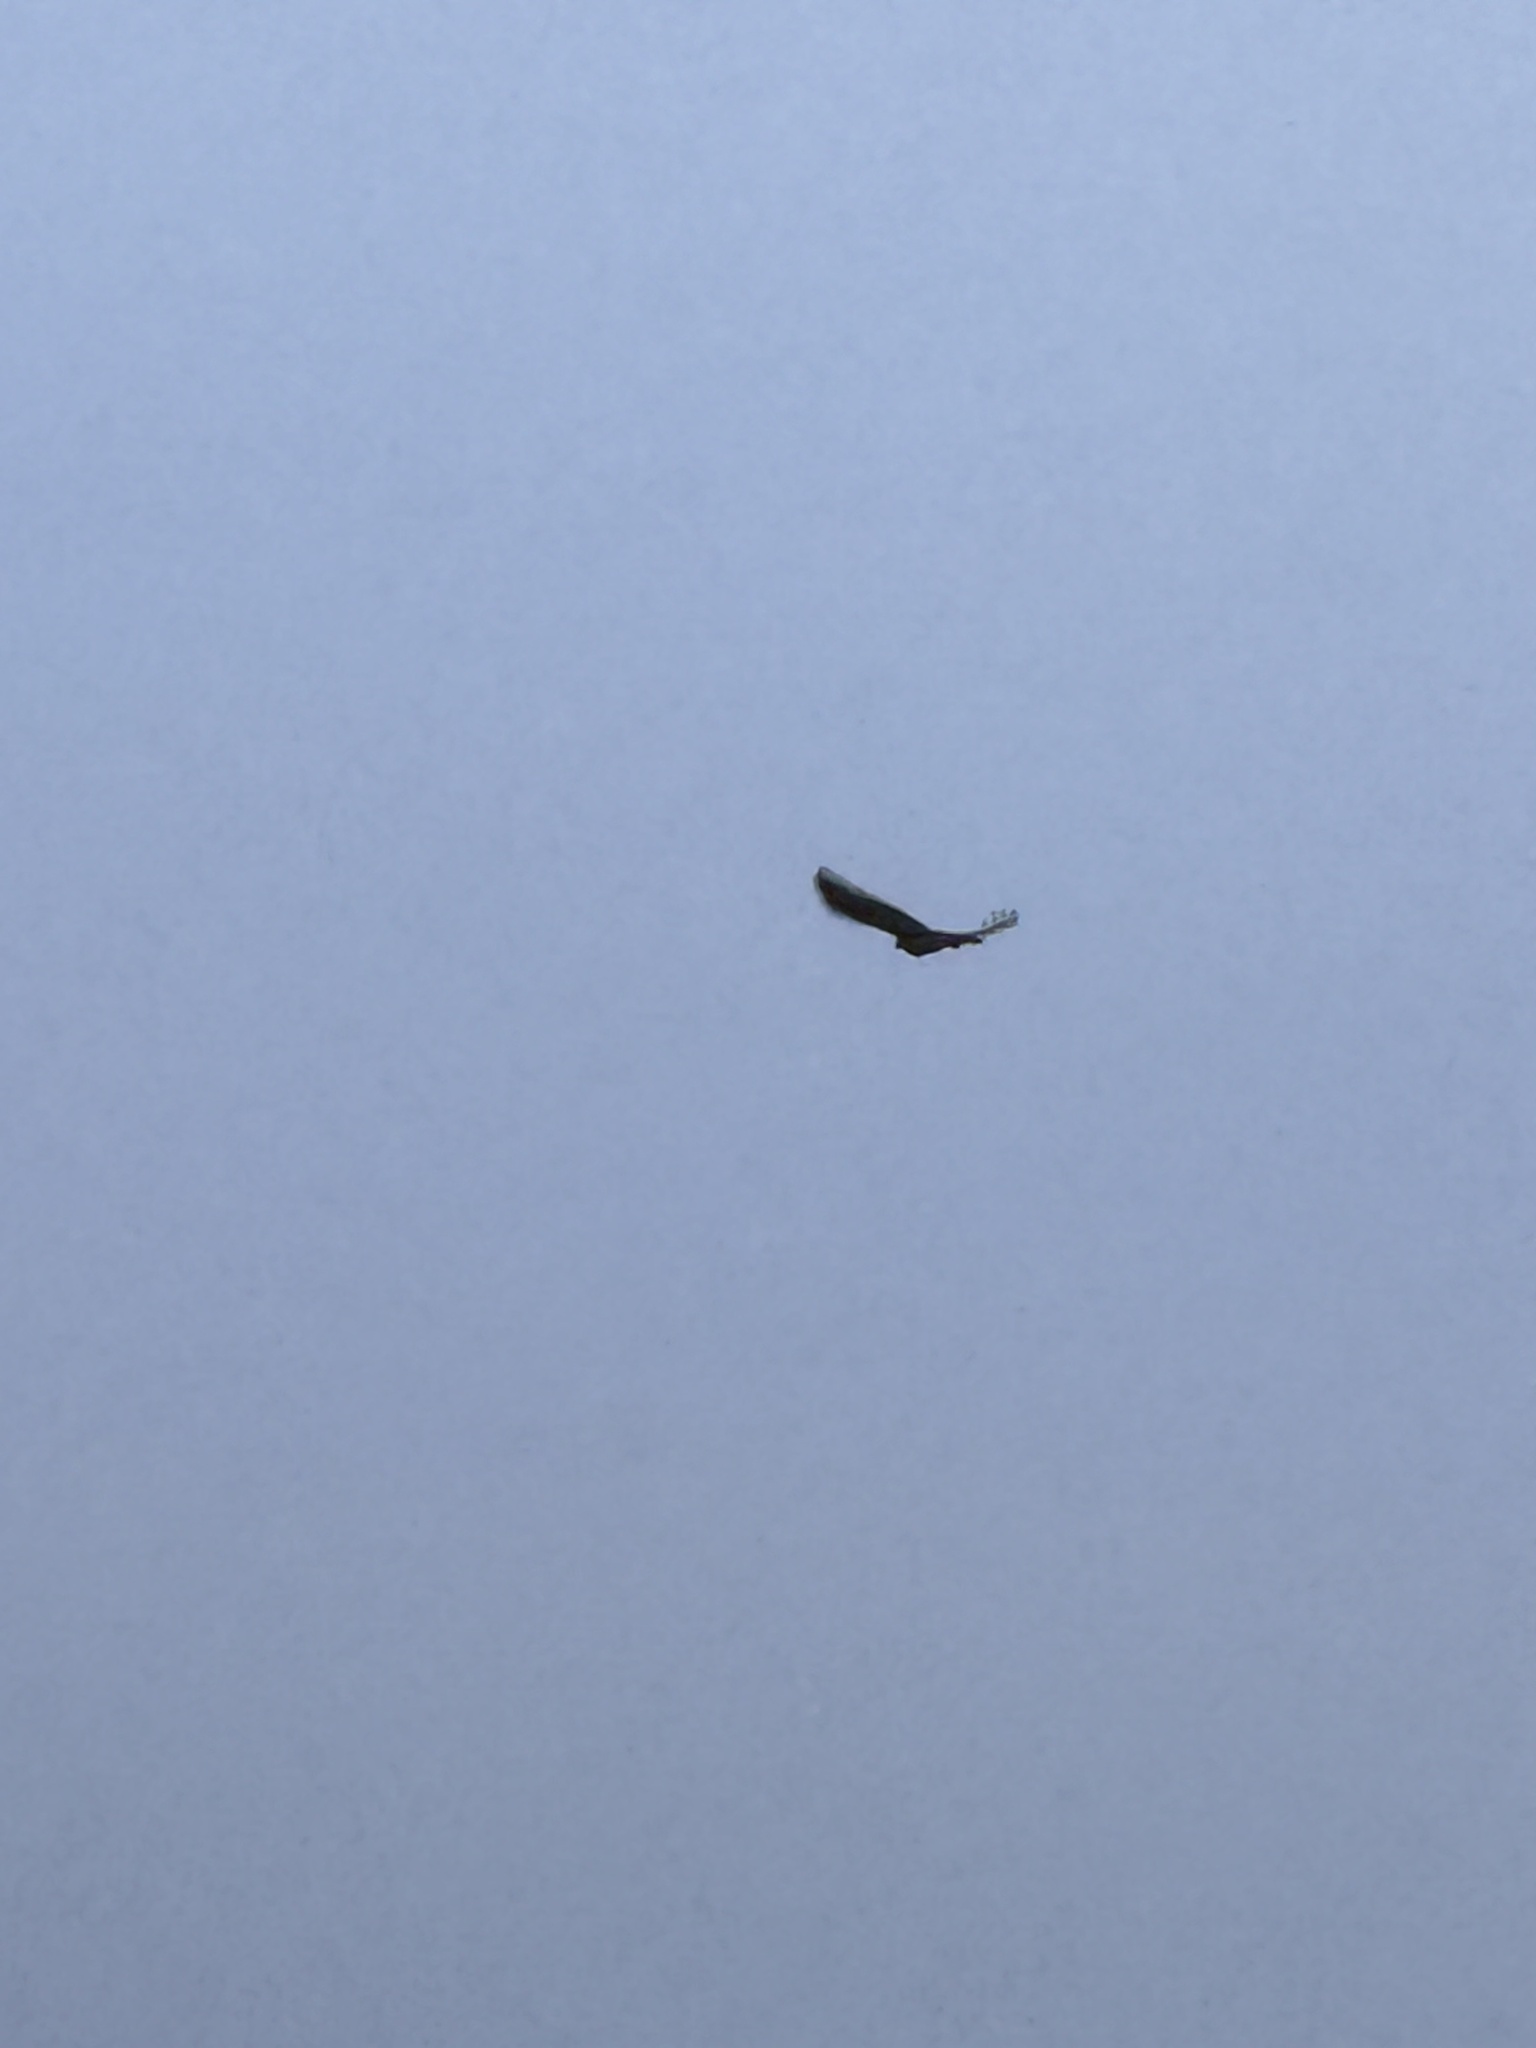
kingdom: Animalia
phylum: Chordata
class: Aves
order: Accipitriformes
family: Accipitridae
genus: Buteo
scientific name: Buteo jamaicensis
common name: Red-tailed hawk
